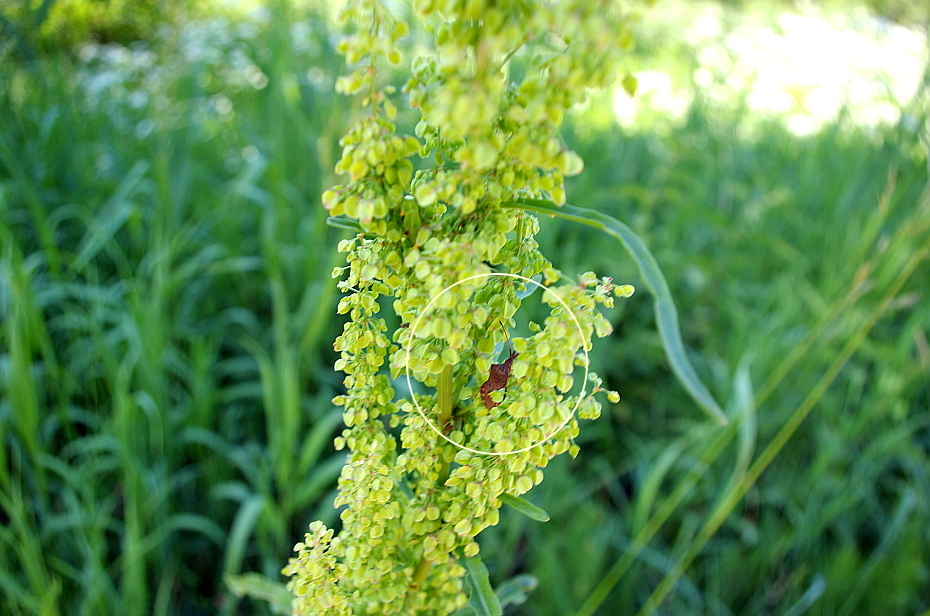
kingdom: Animalia
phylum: Arthropoda
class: Insecta
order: Hemiptera
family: Coreidae
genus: Coreus
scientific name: Coreus marginatus
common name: Dock bug
